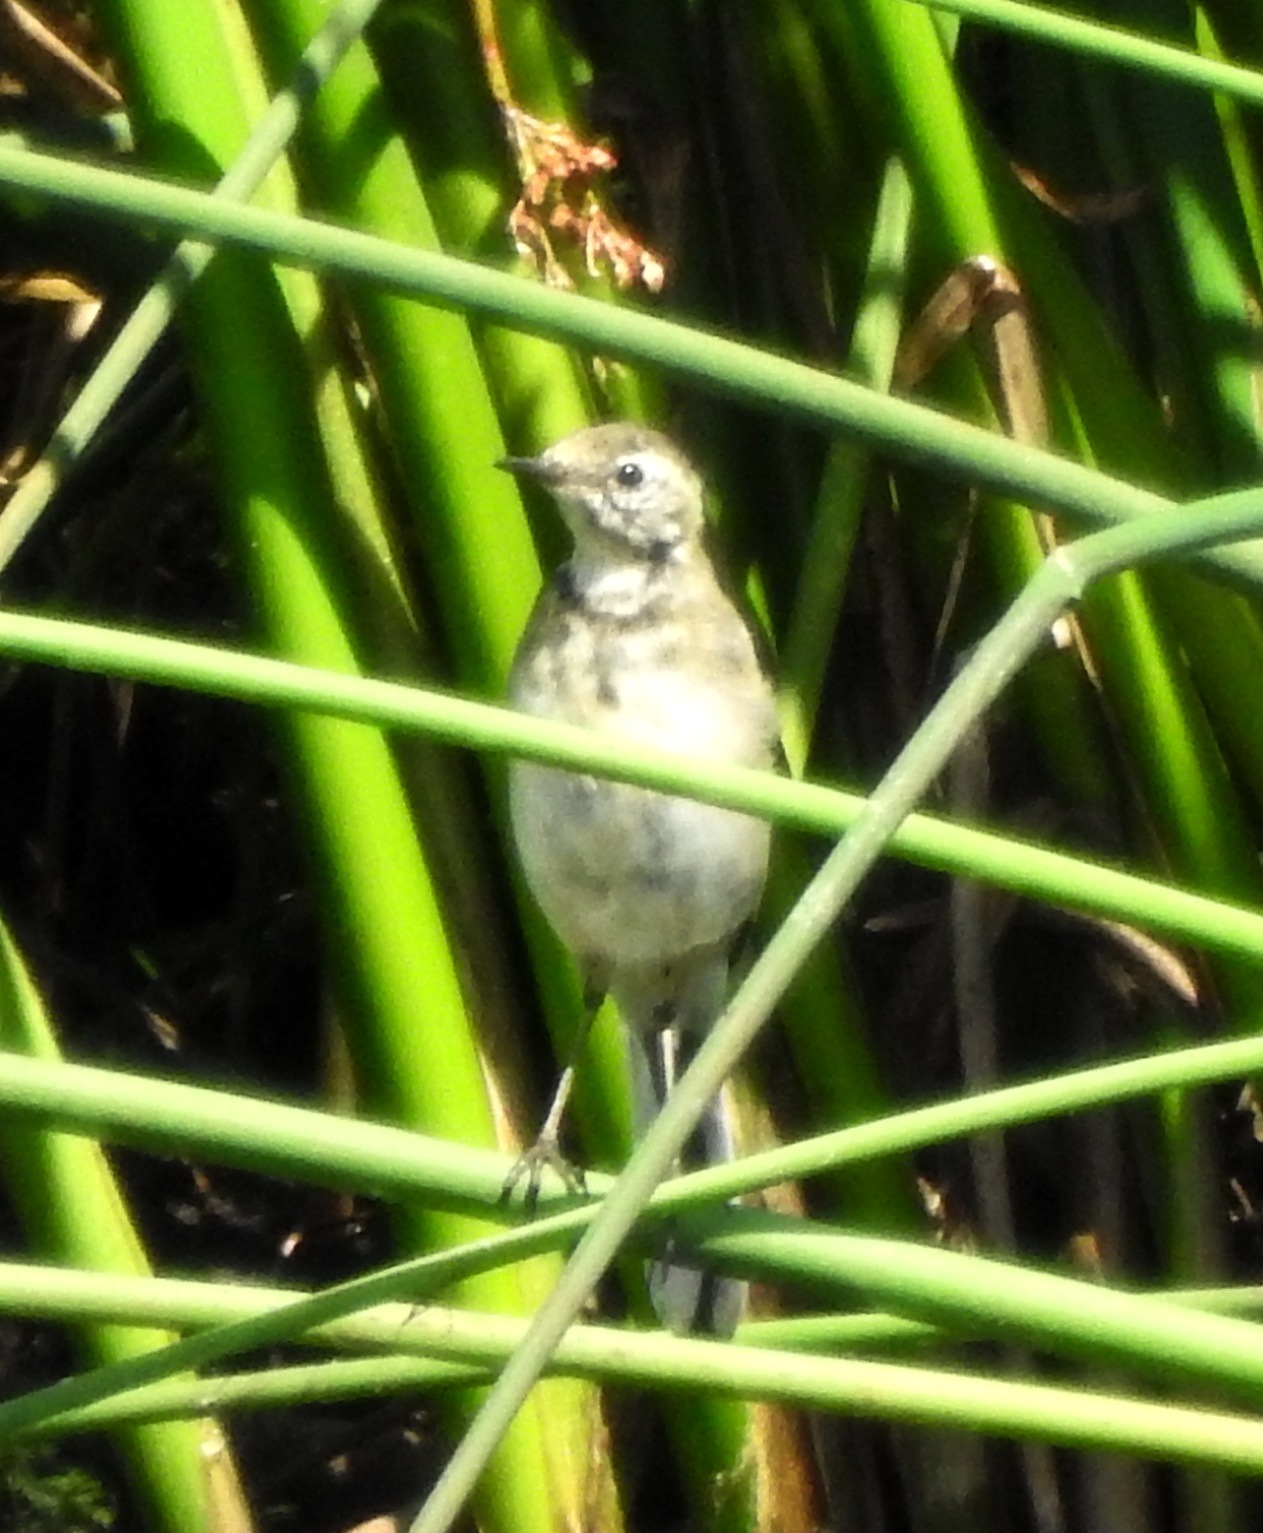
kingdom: Animalia
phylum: Chordata
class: Aves
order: Passeriformes
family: Motacillidae
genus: Motacilla
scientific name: Motacilla alba
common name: White wagtail
